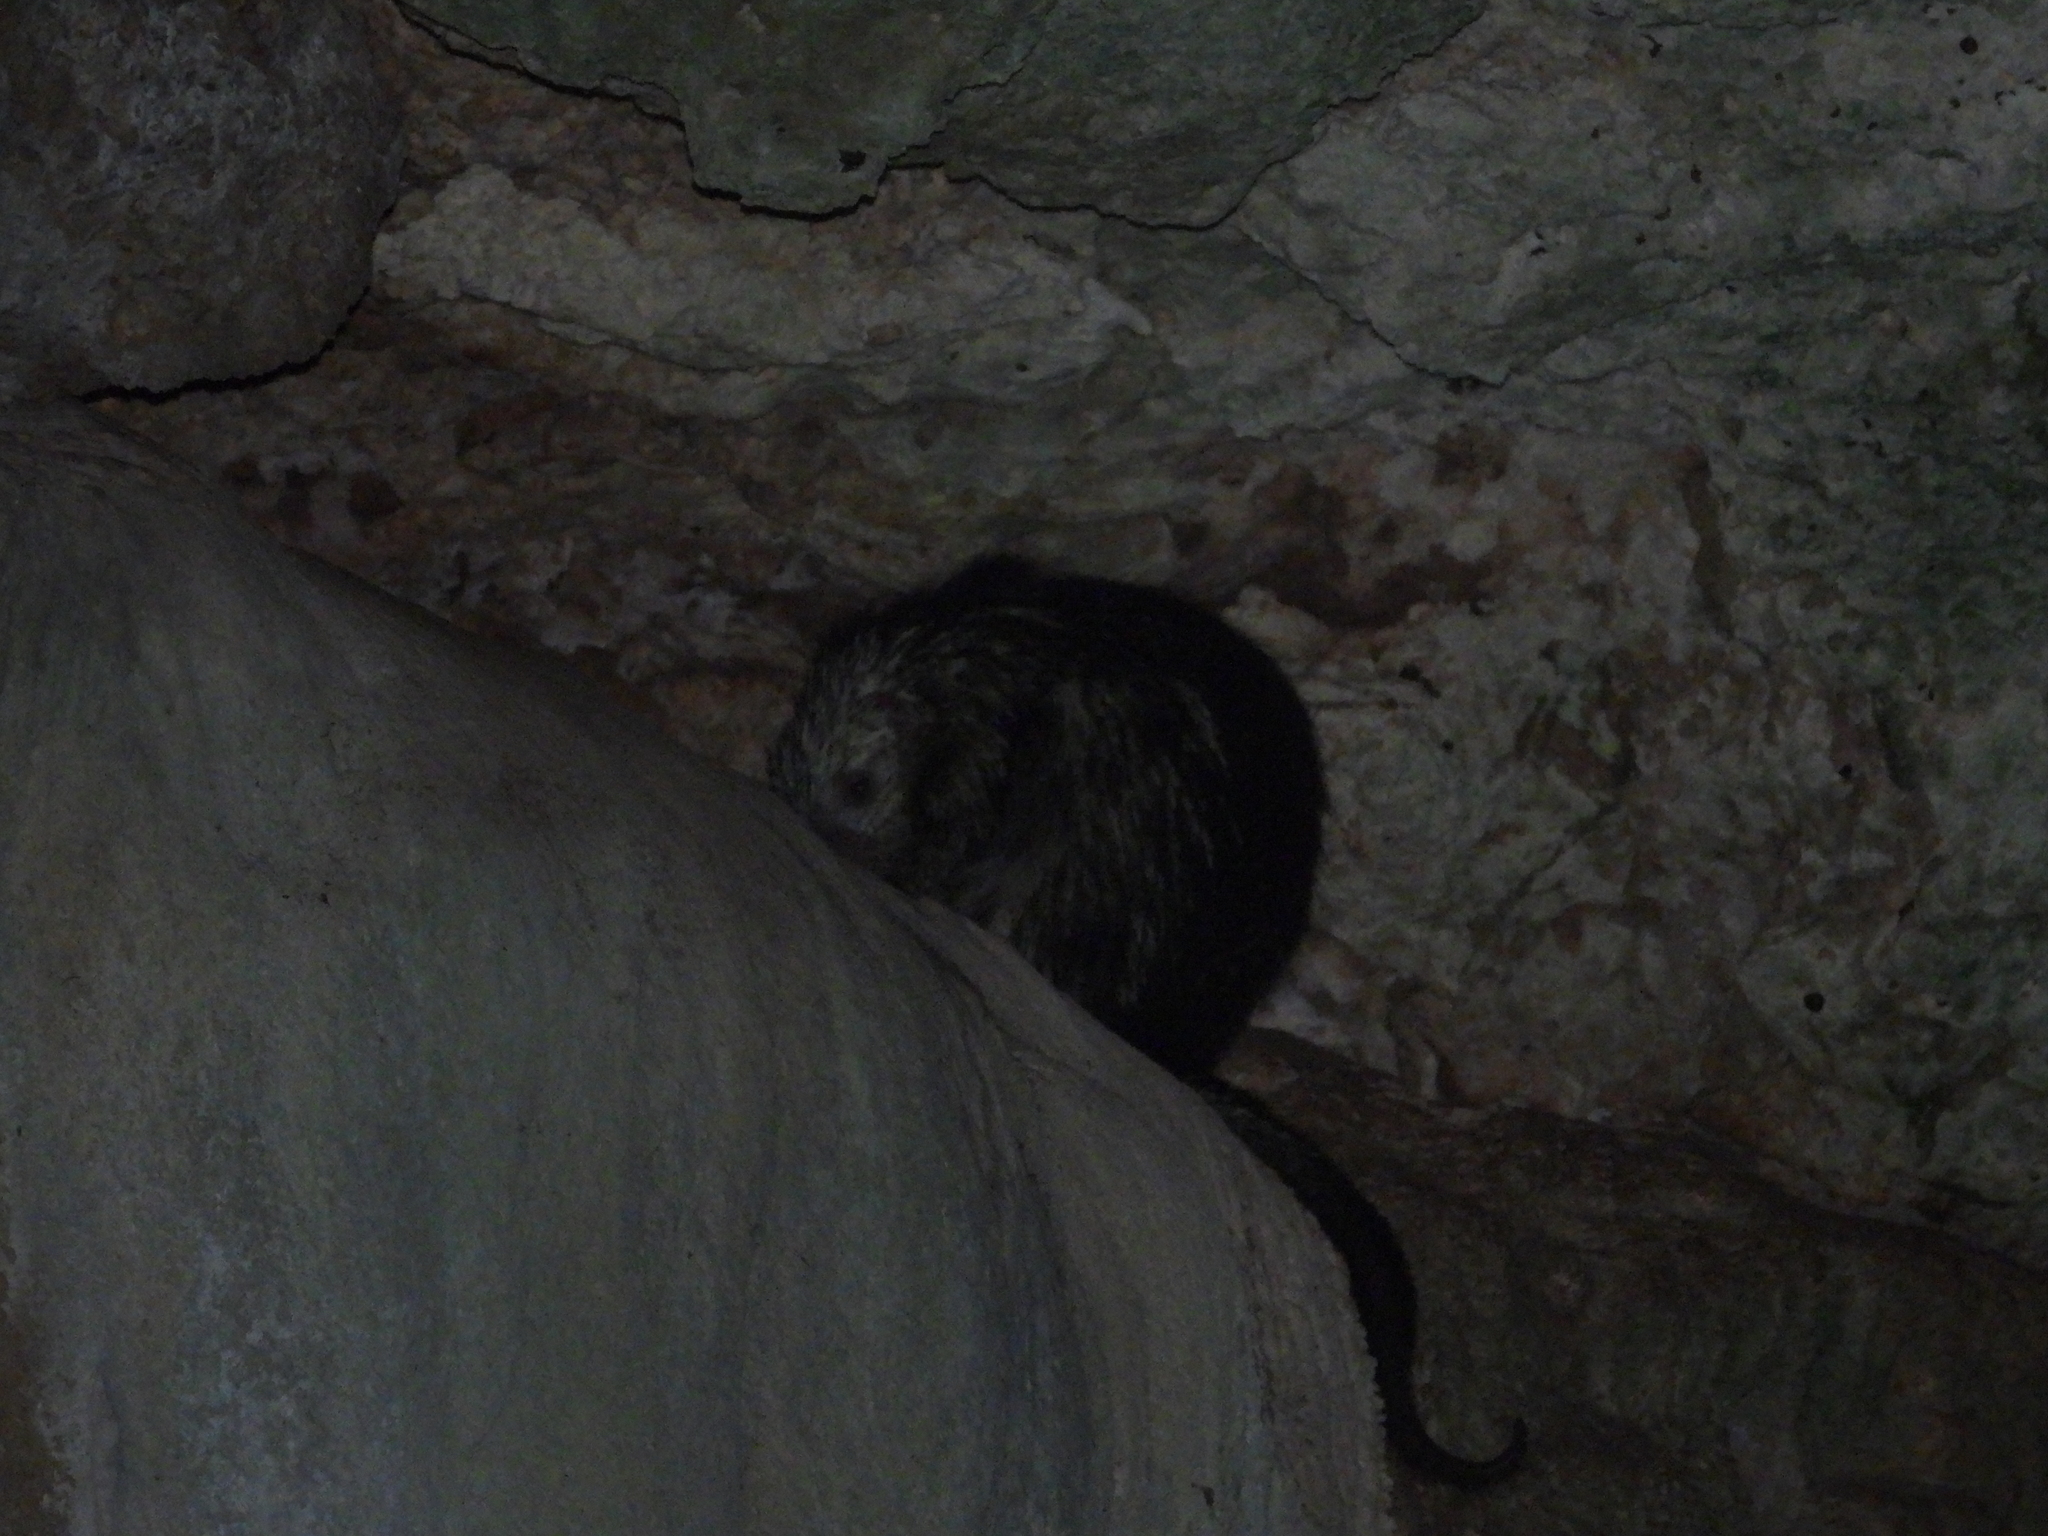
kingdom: Animalia
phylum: Chordata
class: Mammalia
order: Rodentia
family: Erethizontidae
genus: Sphiggurus
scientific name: Sphiggurus mexicanus
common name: Mexican hairy dwarf porcupine
